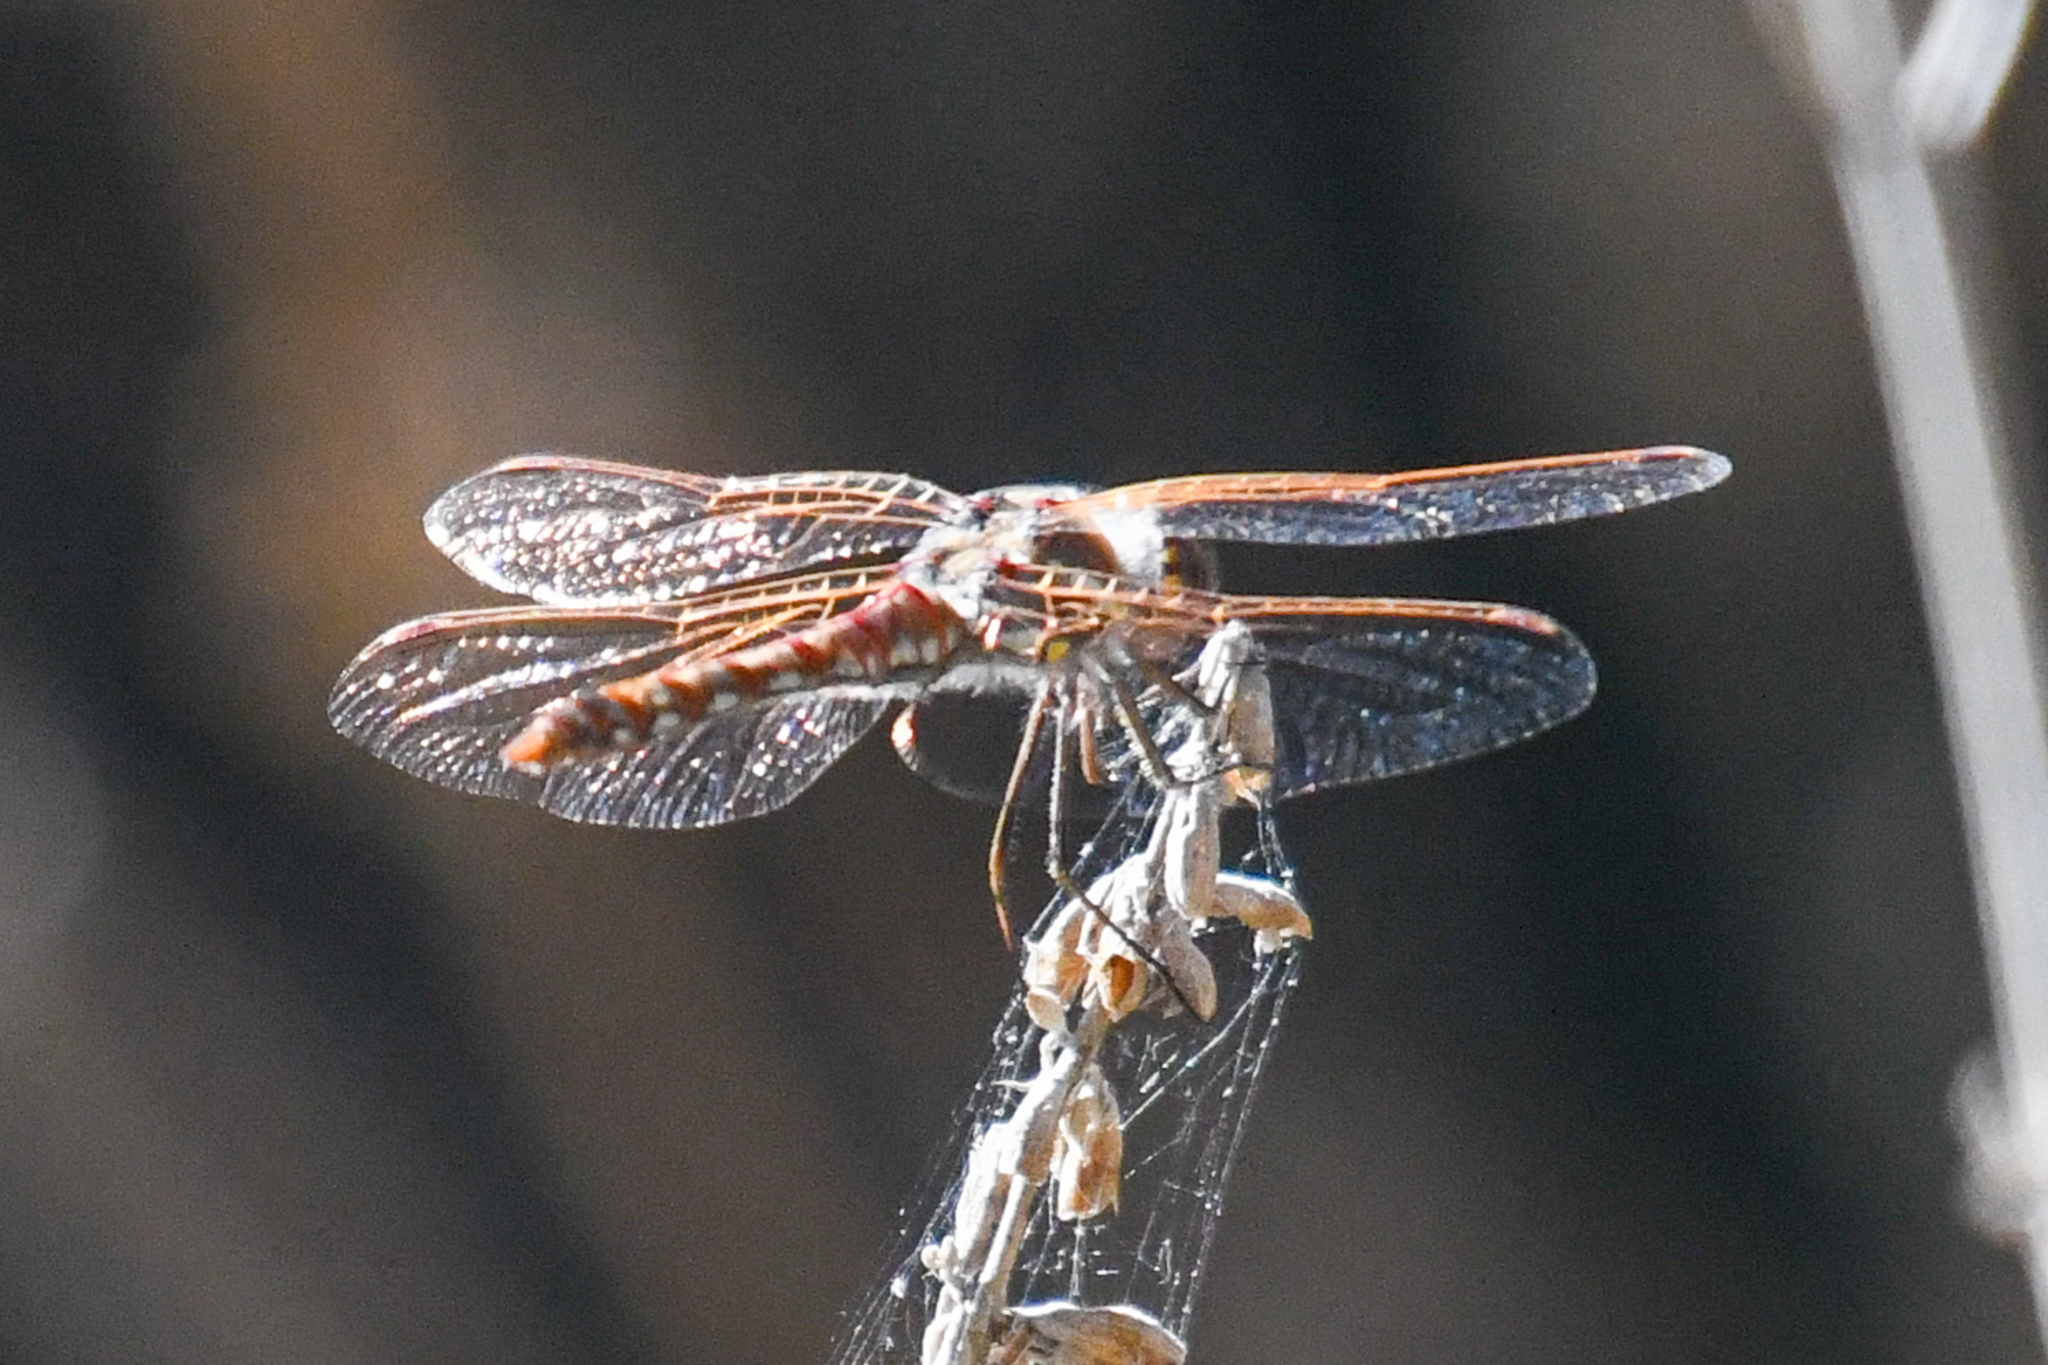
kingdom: Animalia
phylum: Arthropoda
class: Insecta
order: Odonata
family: Libellulidae
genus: Sympetrum
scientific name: Sympetrum corruptum
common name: Variegated meadowhawk
